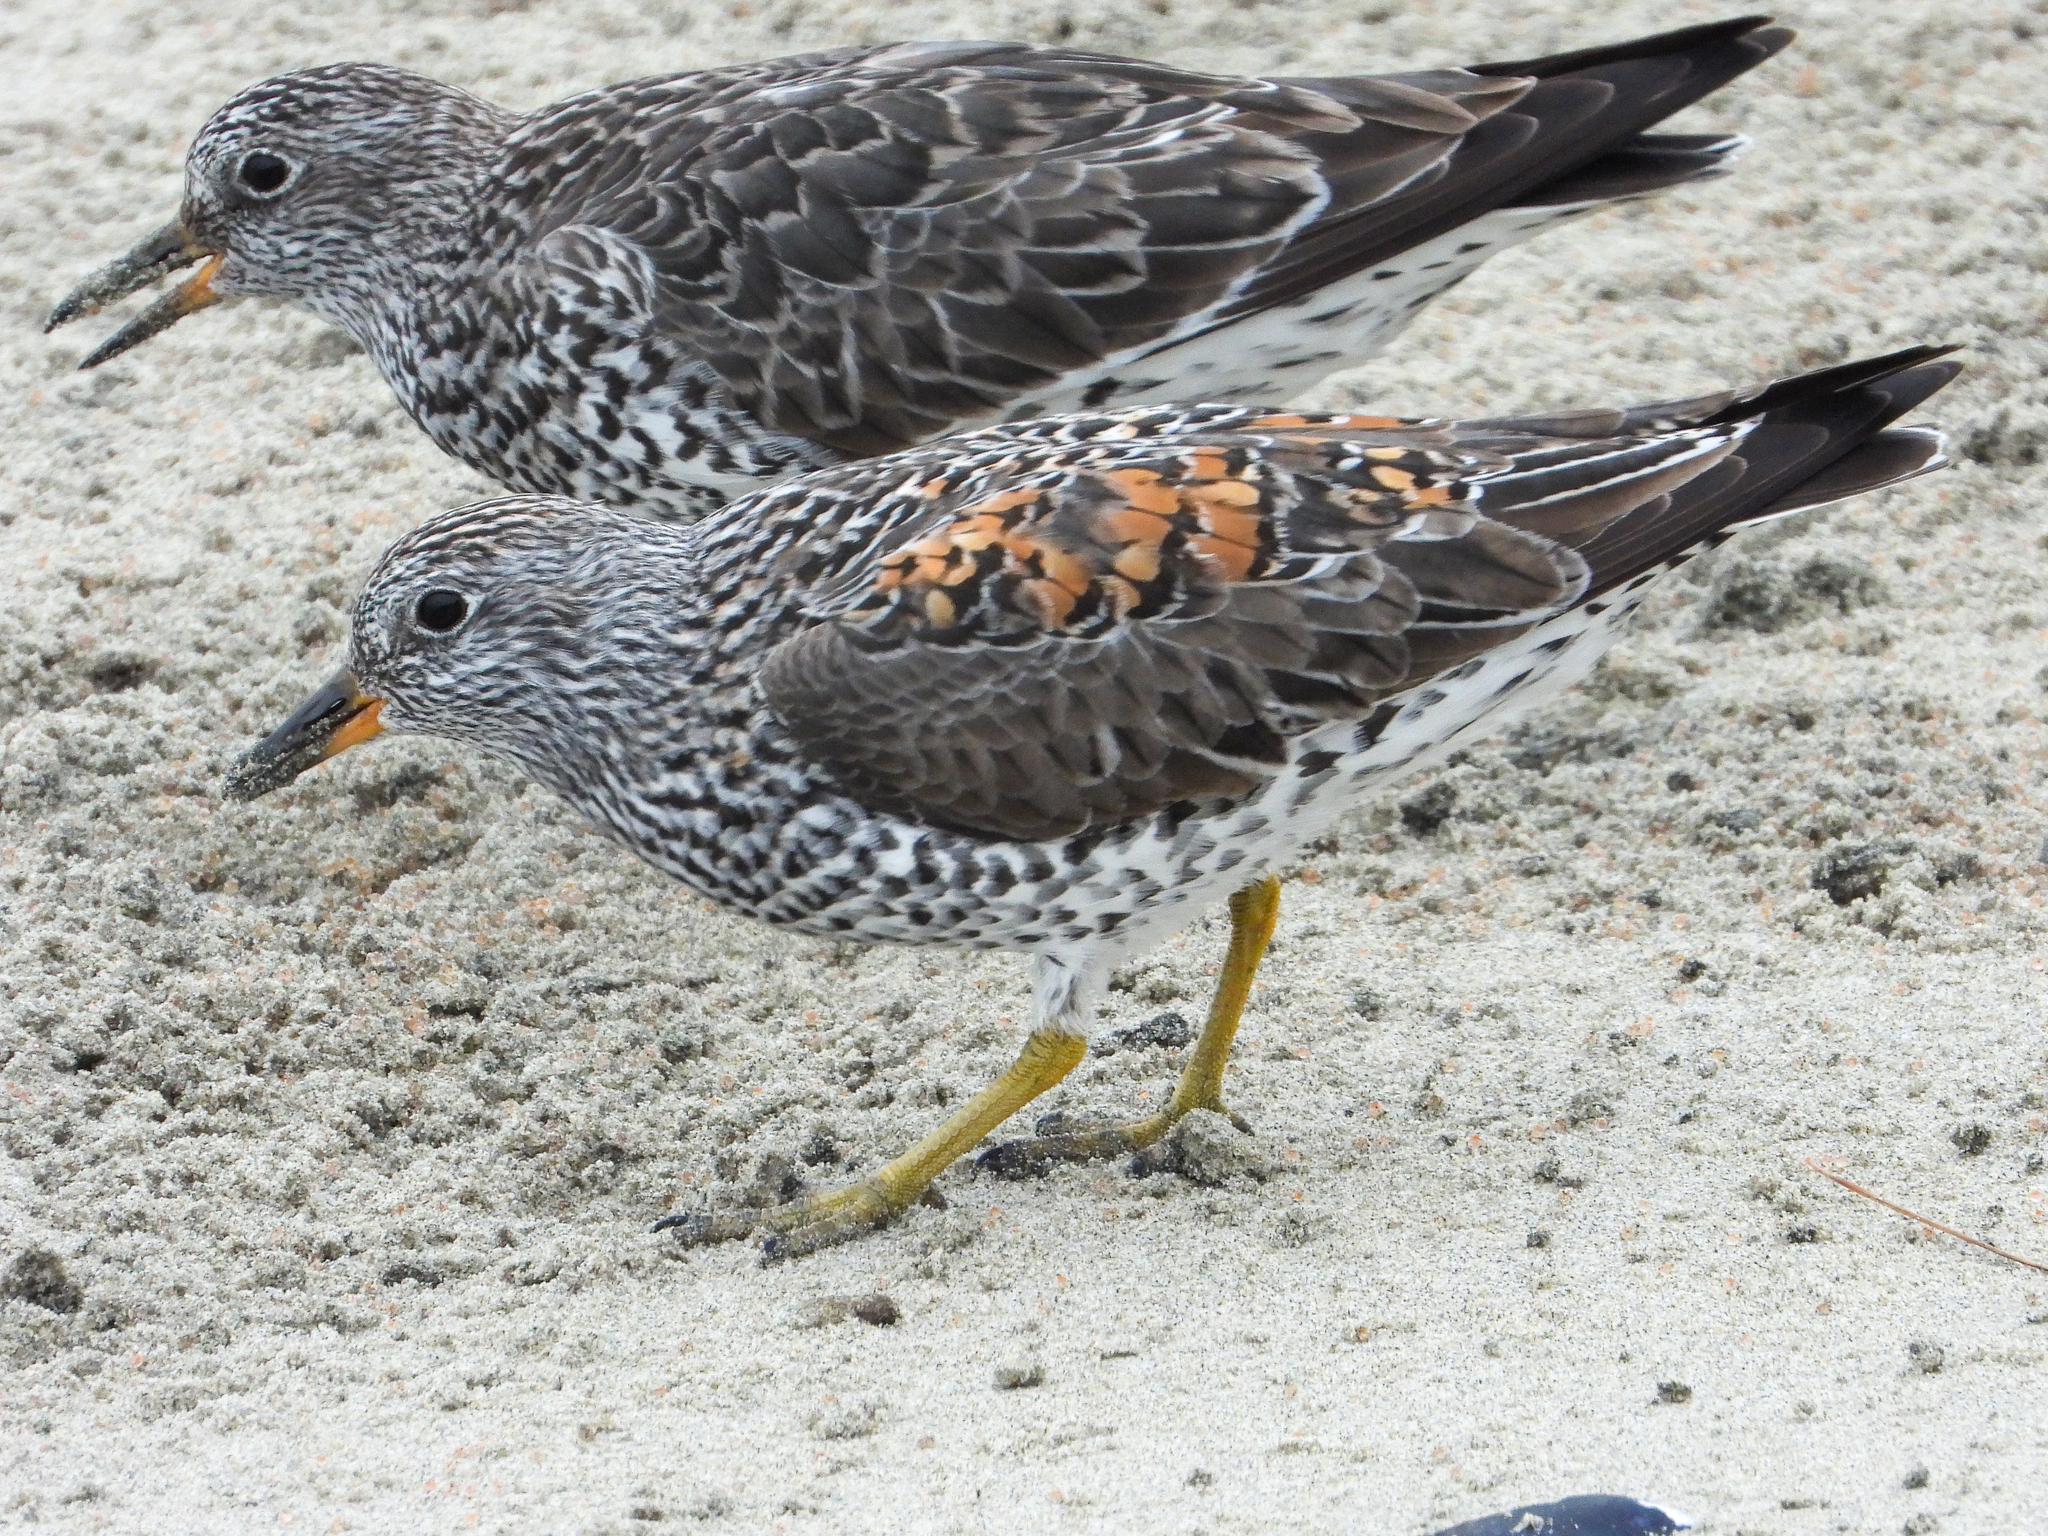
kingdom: Animalia
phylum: Chordata
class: Aves
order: Charadriiformes
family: Scolopacidae
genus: Calidris
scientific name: Calidris virgata
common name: Surfbird
